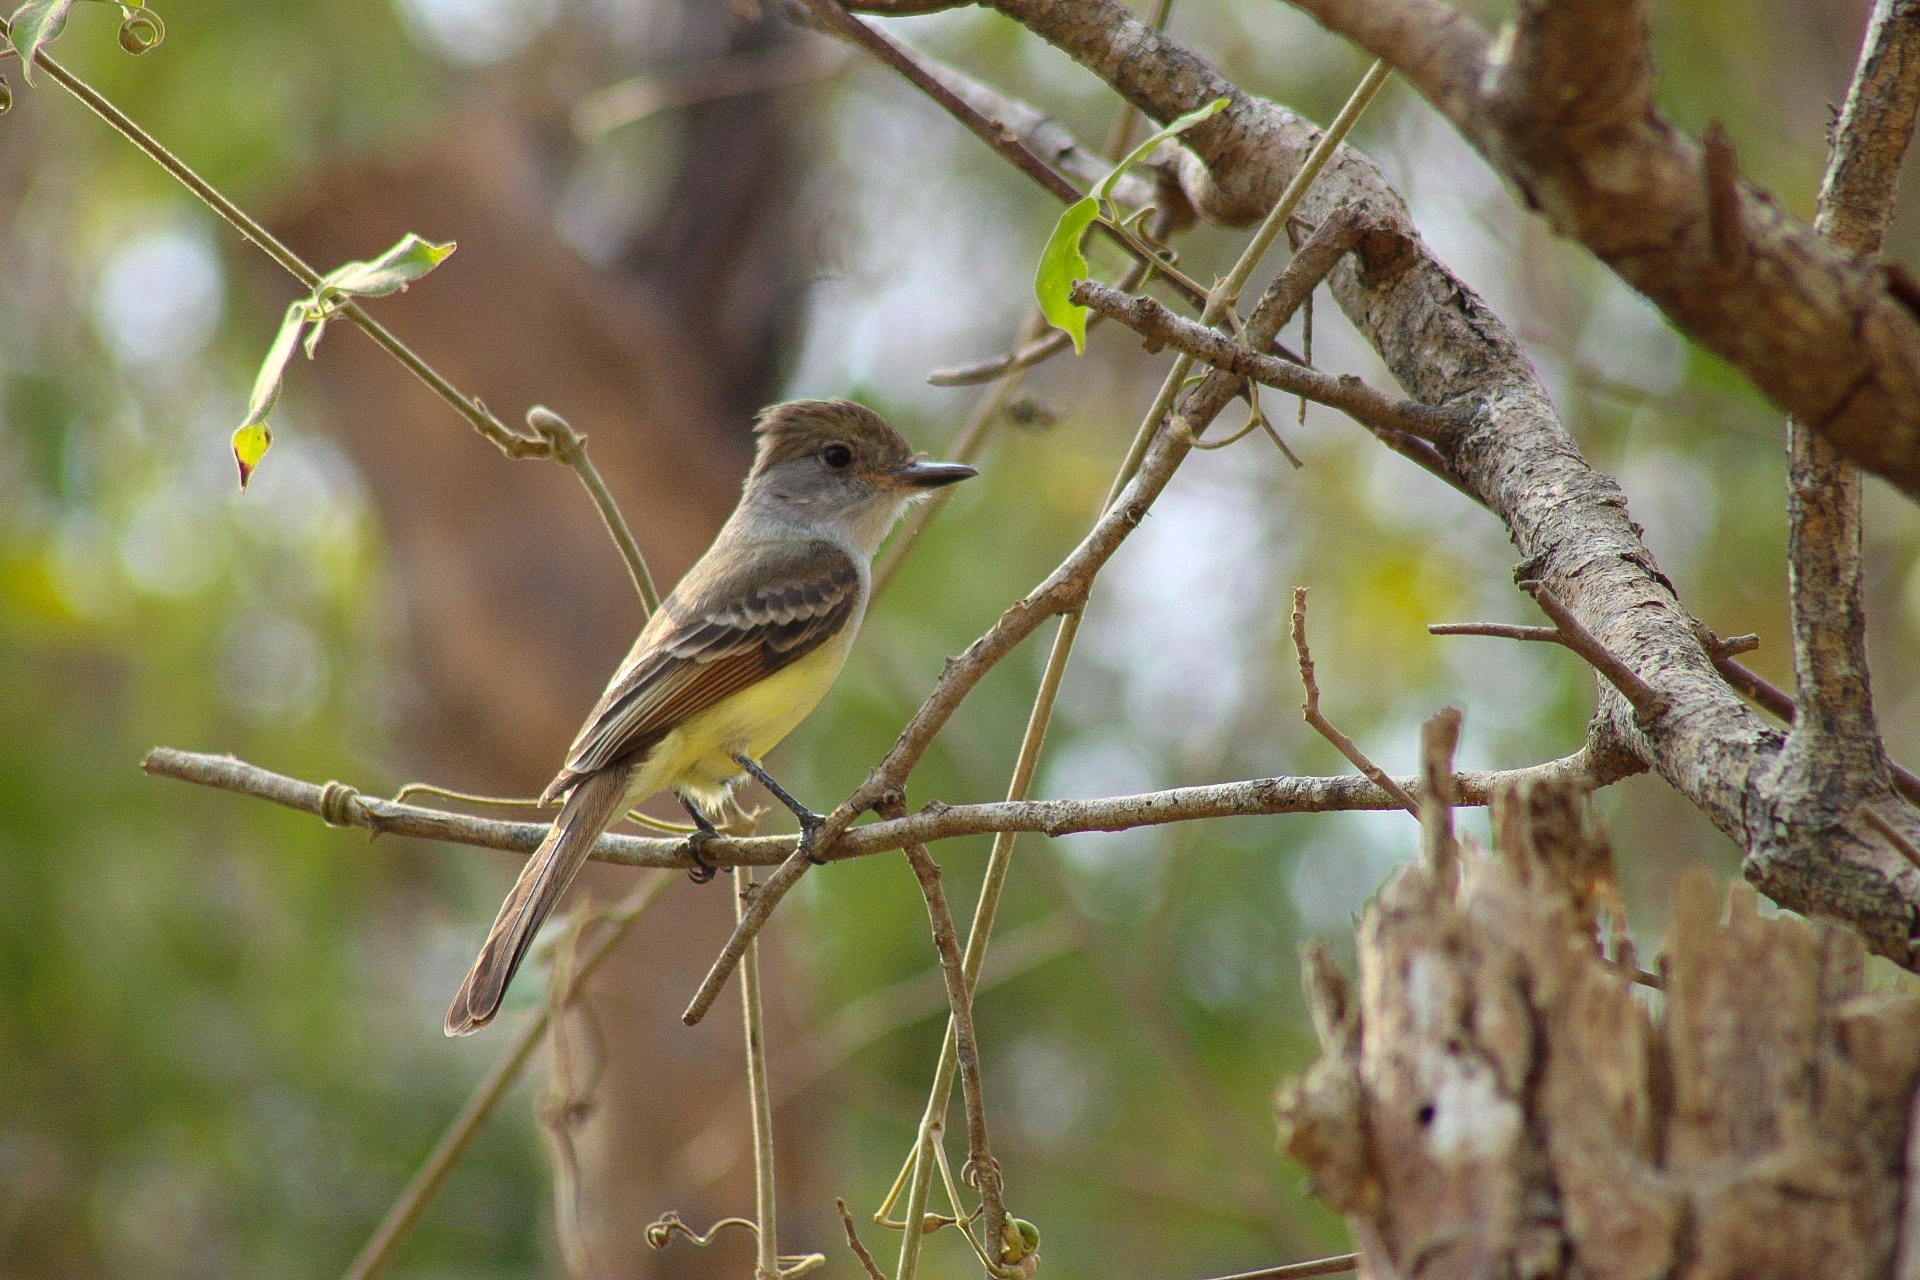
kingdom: Animalia
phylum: Chordata
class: Aves
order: Passeriformes
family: Tyrannidae
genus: Myiarchus
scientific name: Myiarchus tyrannulus
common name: Brown-crested flycatcher
